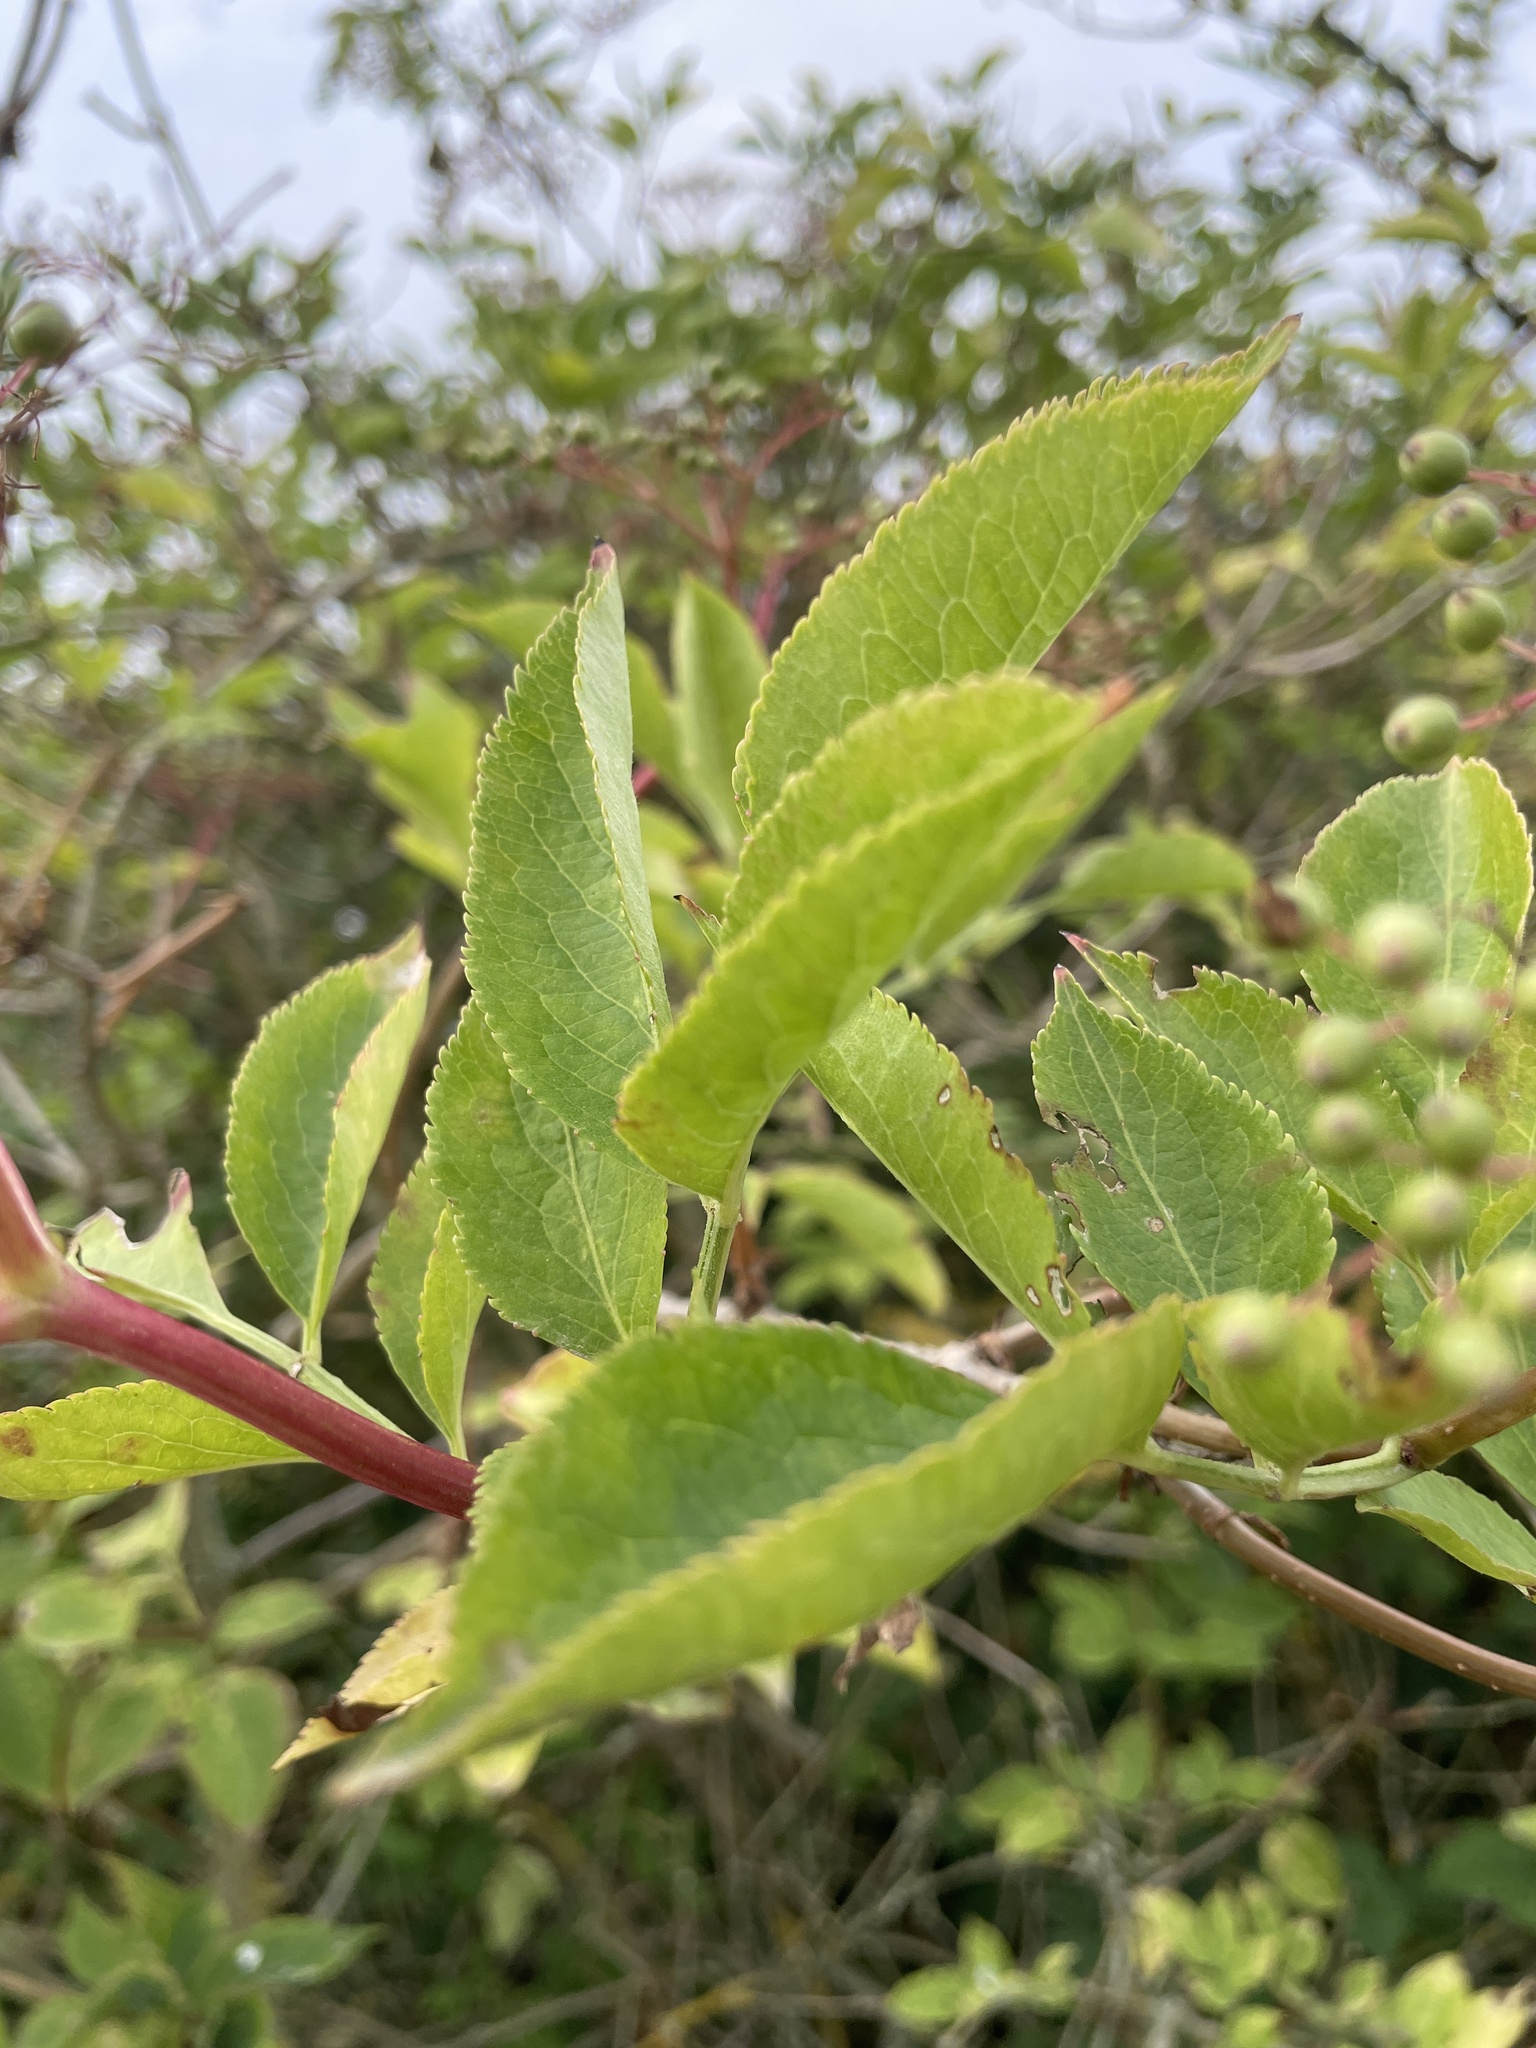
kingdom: Plantae
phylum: Tracheophyta
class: Magnoliopsida
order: Dipsacales
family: Viburnaceae
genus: Sambucus
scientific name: Sambucus nigra
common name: Elder
